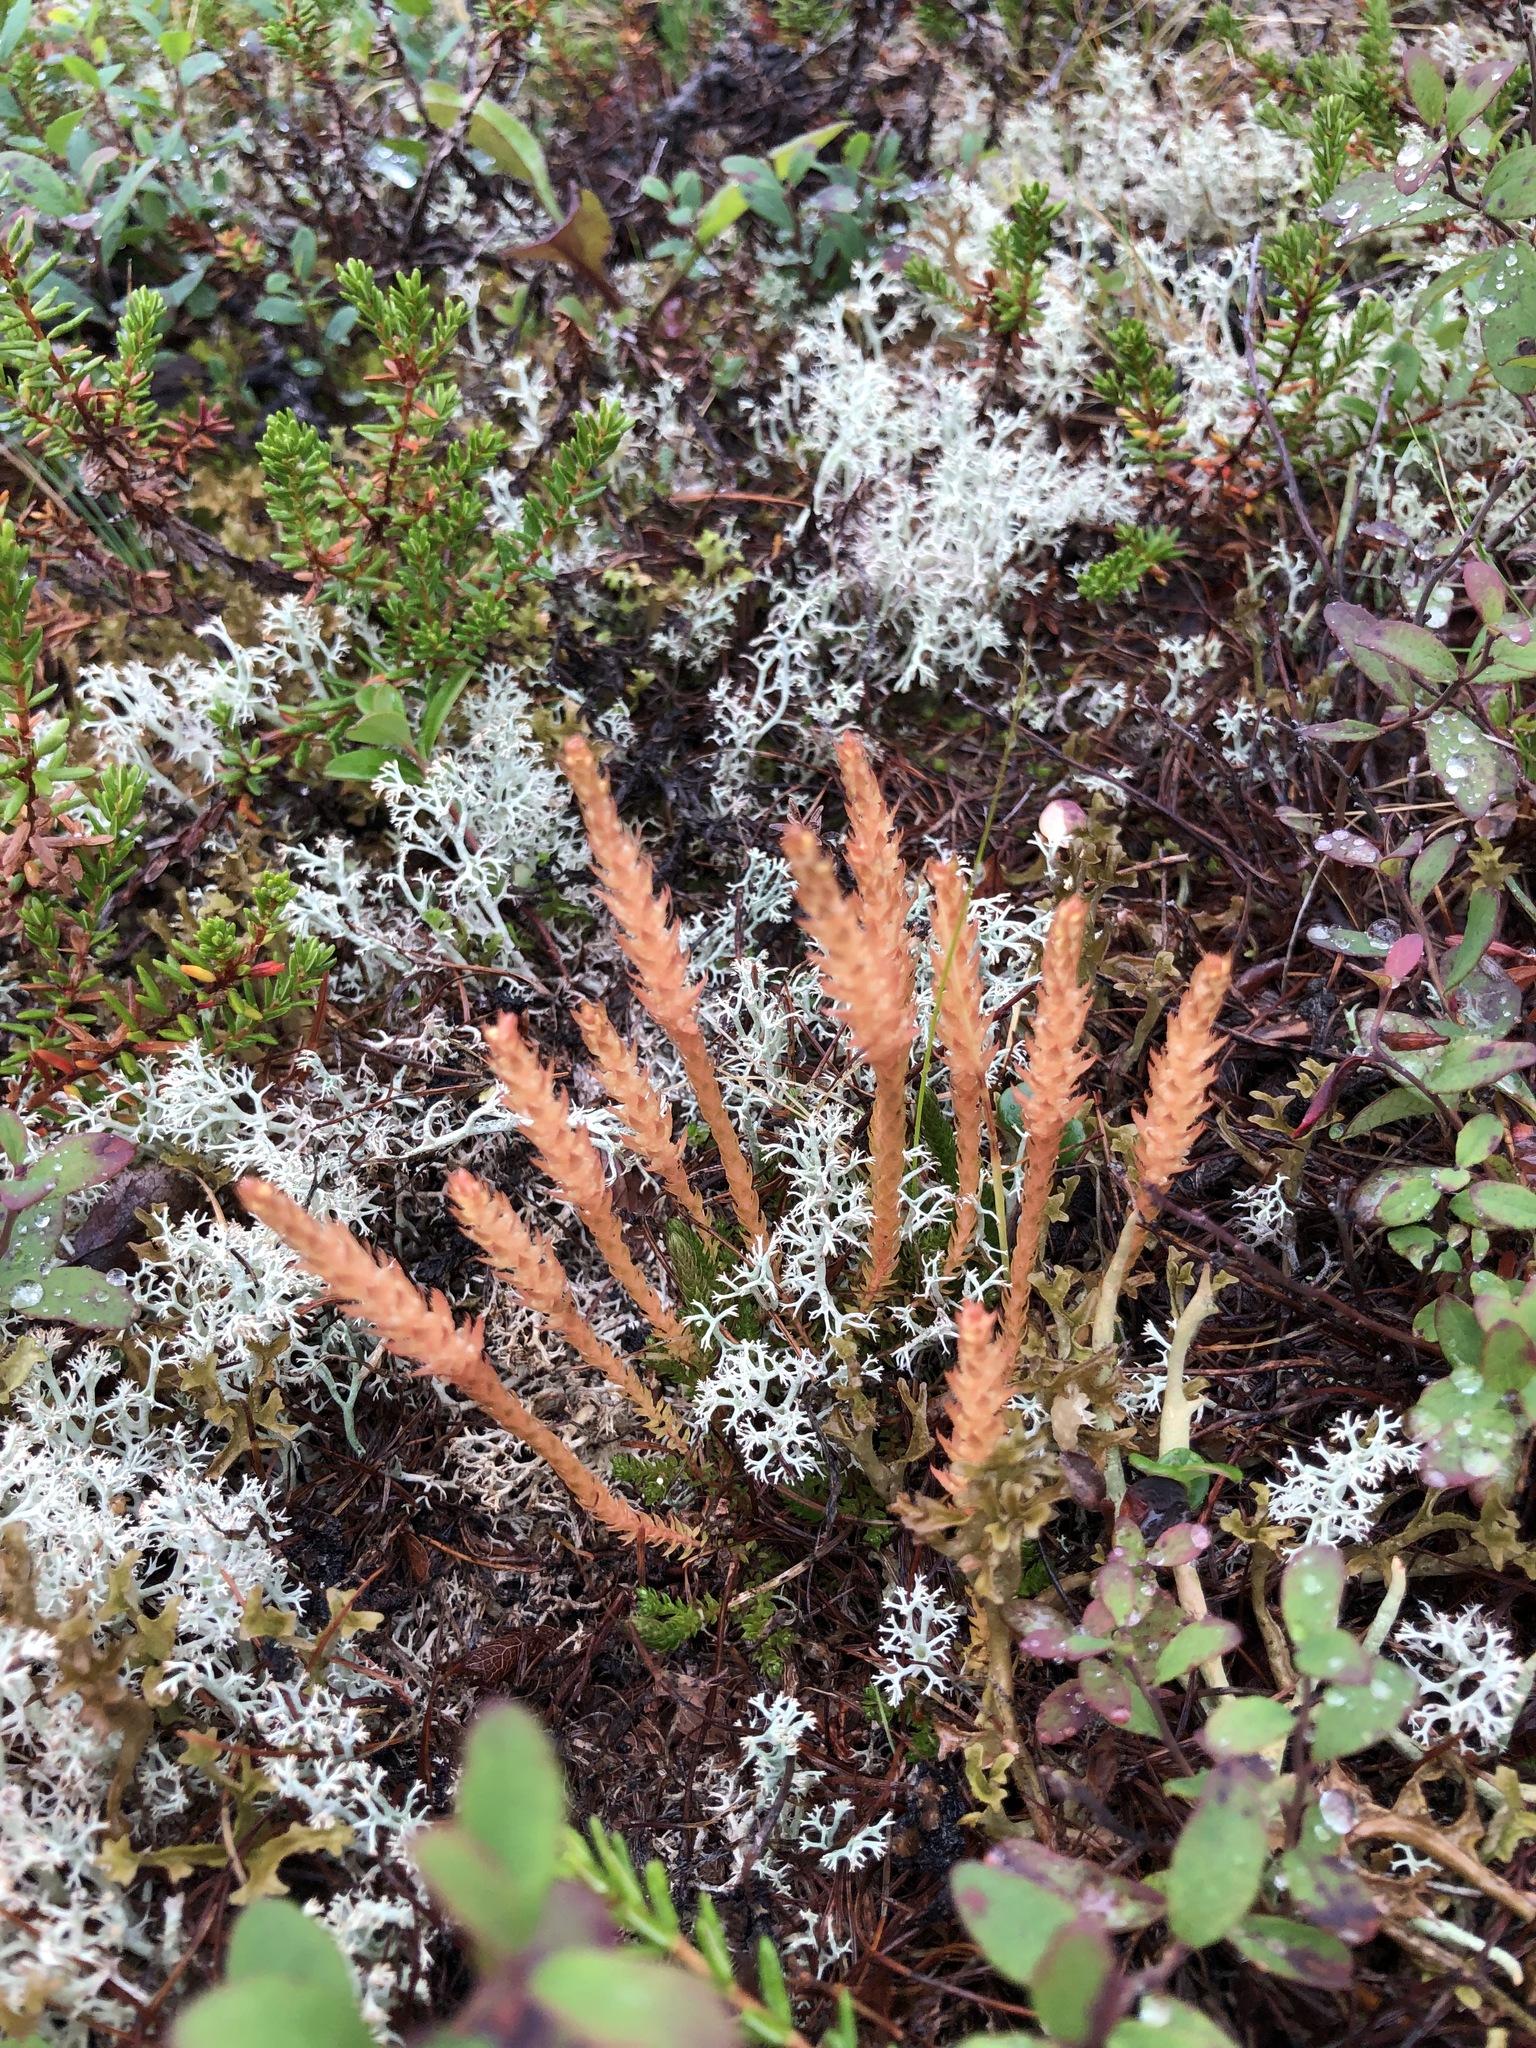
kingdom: Plantae
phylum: Tracheophyta
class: Lycopodiopsida
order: Selaginellales
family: Selaginellaceae
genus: Selaginella
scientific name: Selaginella selaginoides
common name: Prickly mountain-moss
